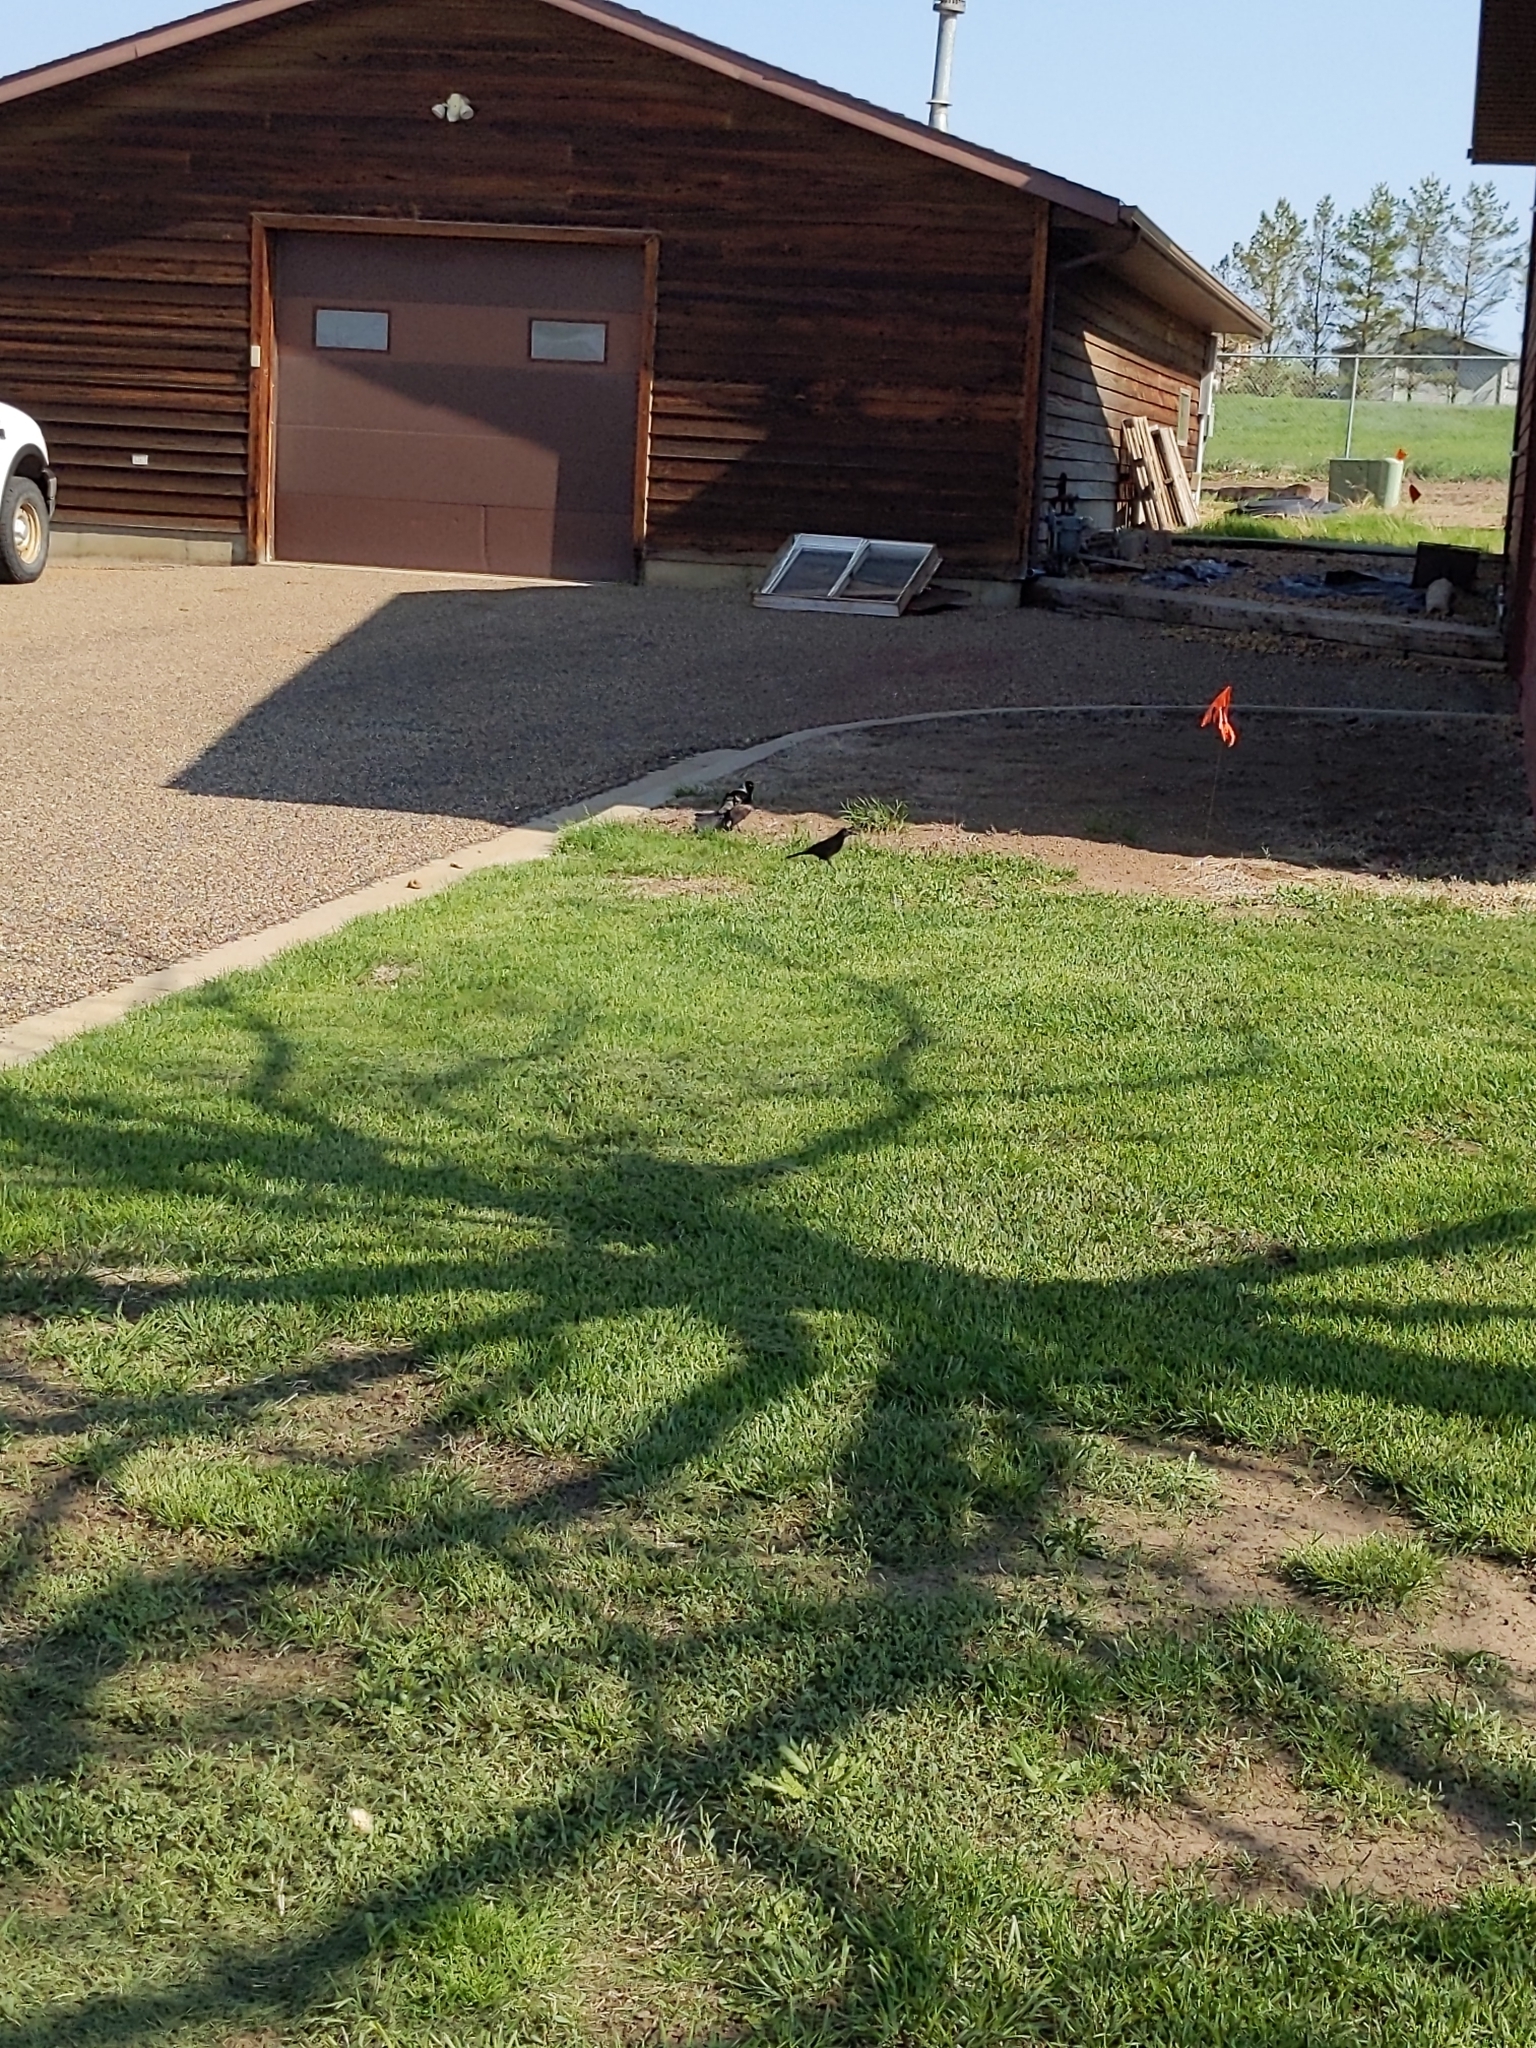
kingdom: Animalia
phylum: Chordata
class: Aves
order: Passeriformes
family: Icteridae
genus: Quiscalus
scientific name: Quiscalus quiscula
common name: Common grackle
